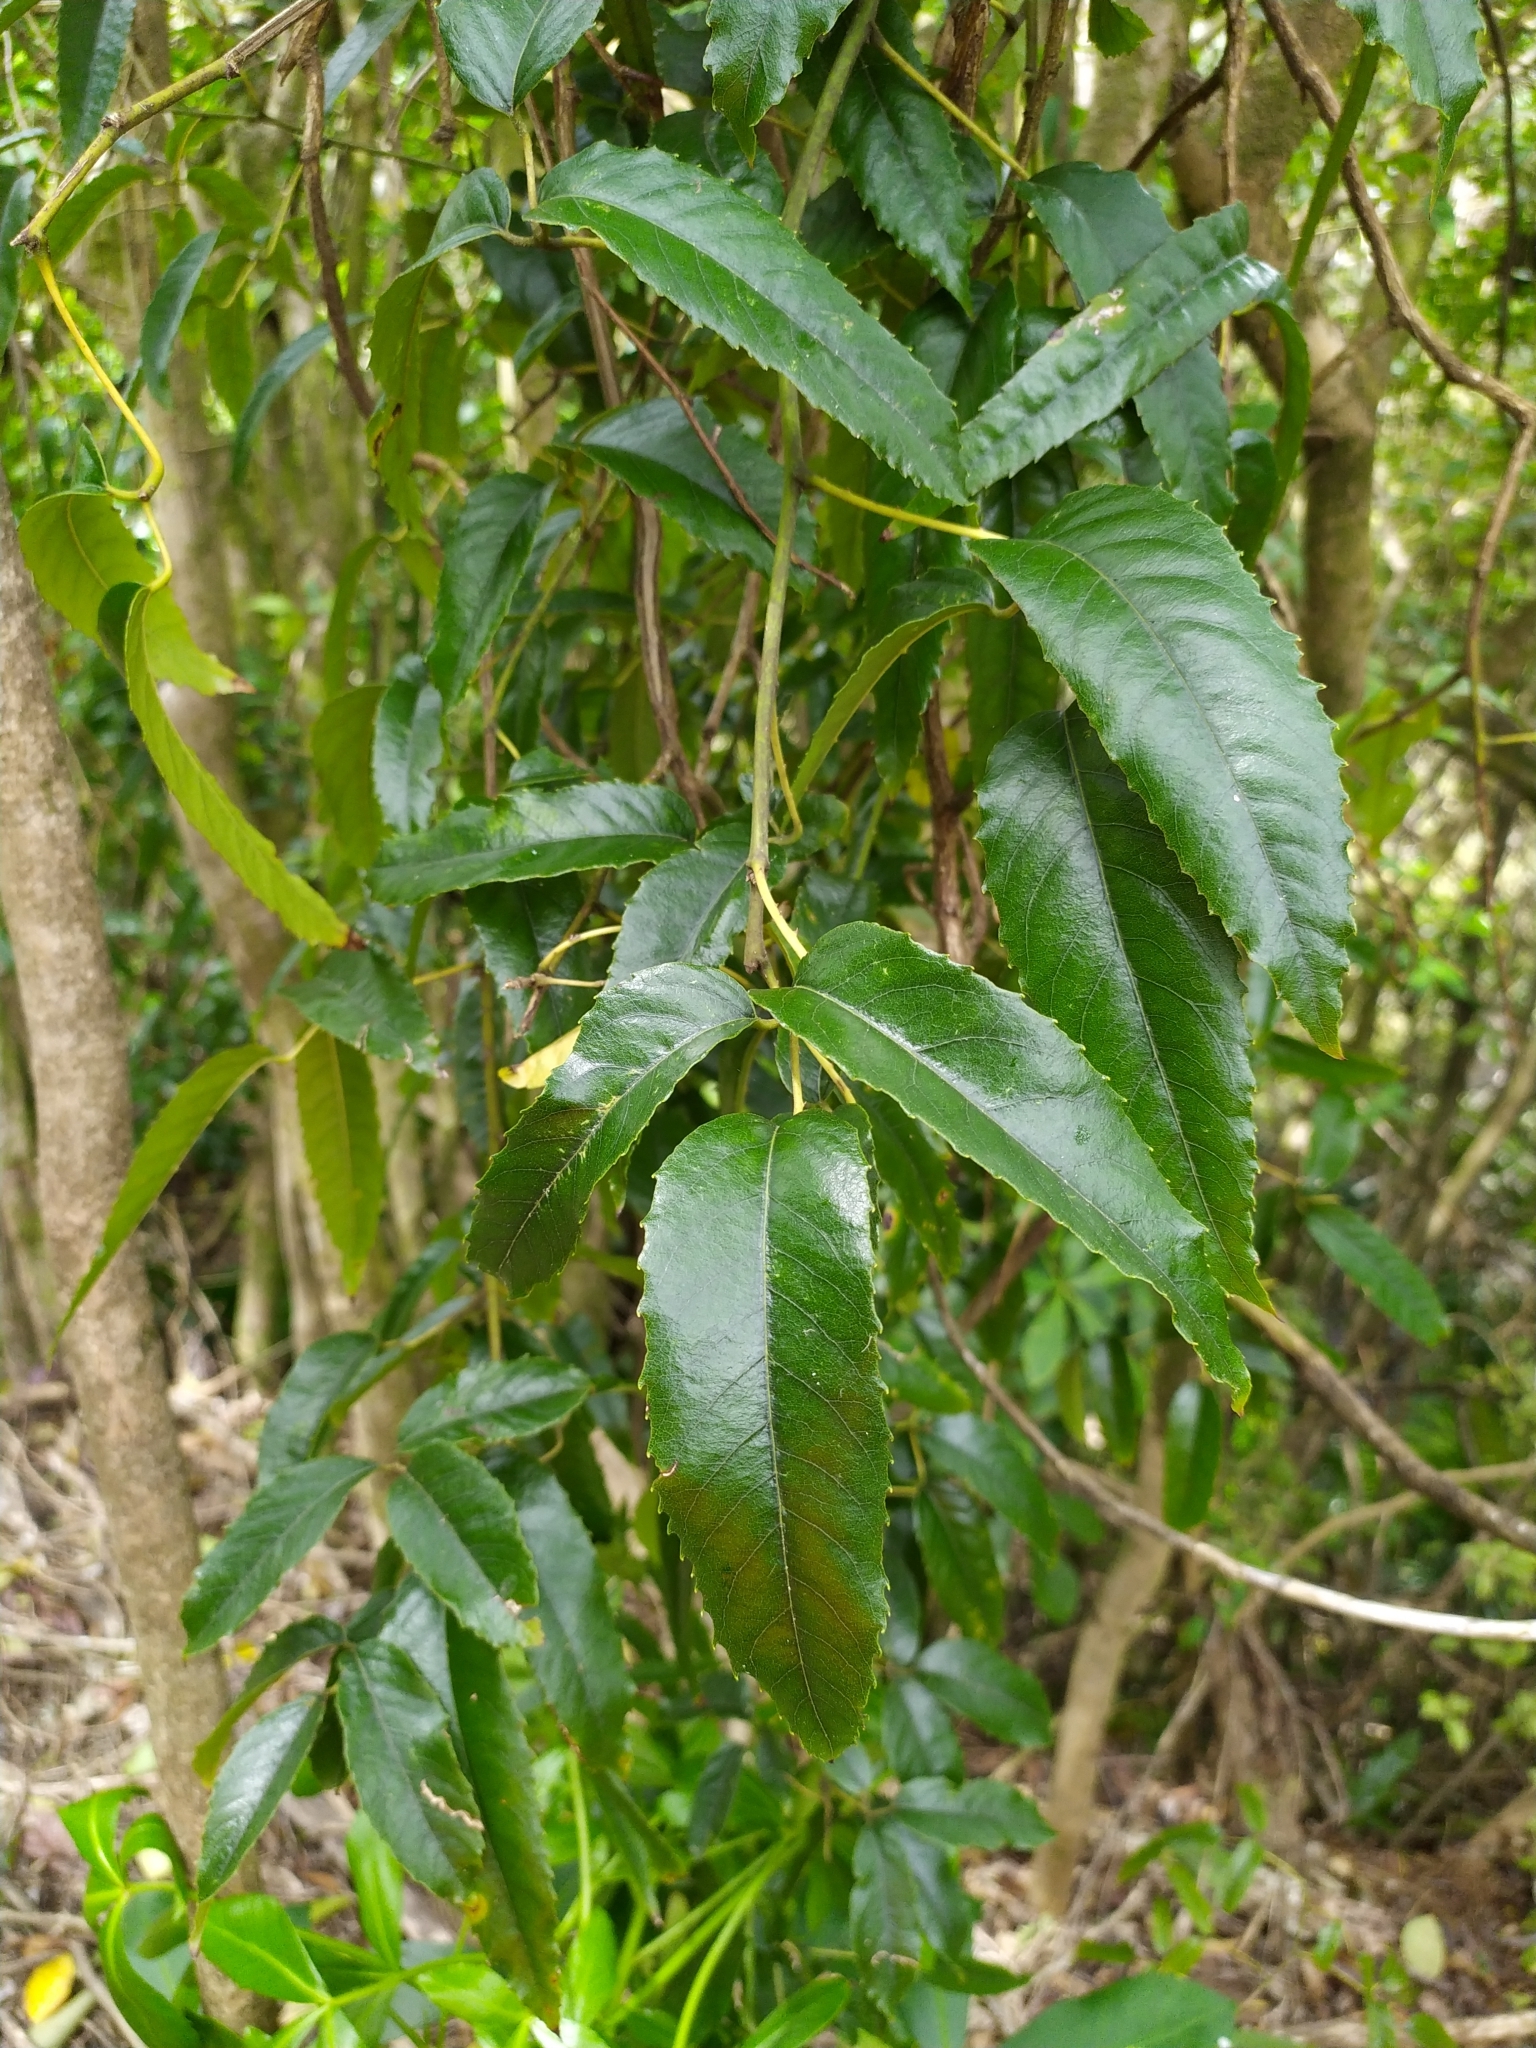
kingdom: Plantae
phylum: Tracheophyta
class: Magnoliopsida
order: Rosales
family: Rosaceae
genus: Rubus
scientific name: Rubus cissoides
